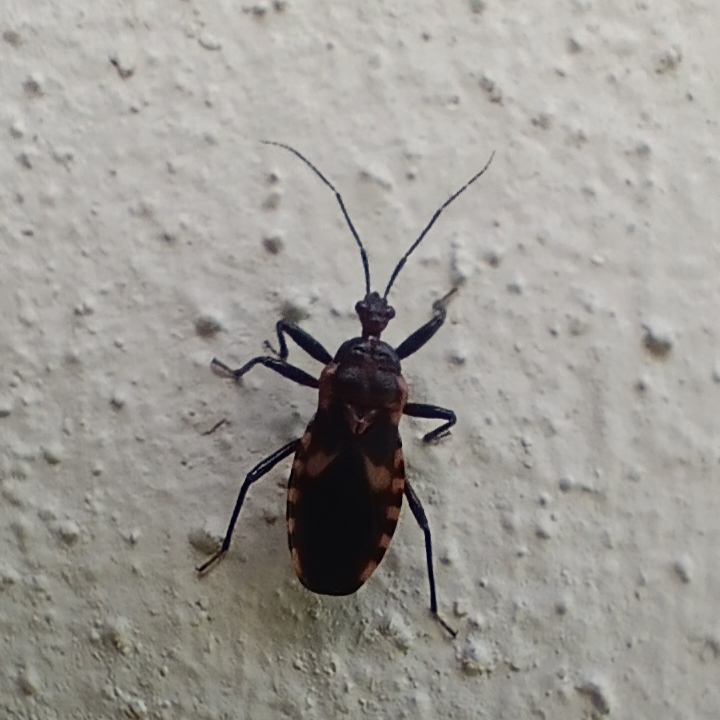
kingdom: Animalia
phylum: Arthropoda
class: Insecta
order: Hemiptera
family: Reduviidae
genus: Santosia
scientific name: Santosia bidentula
